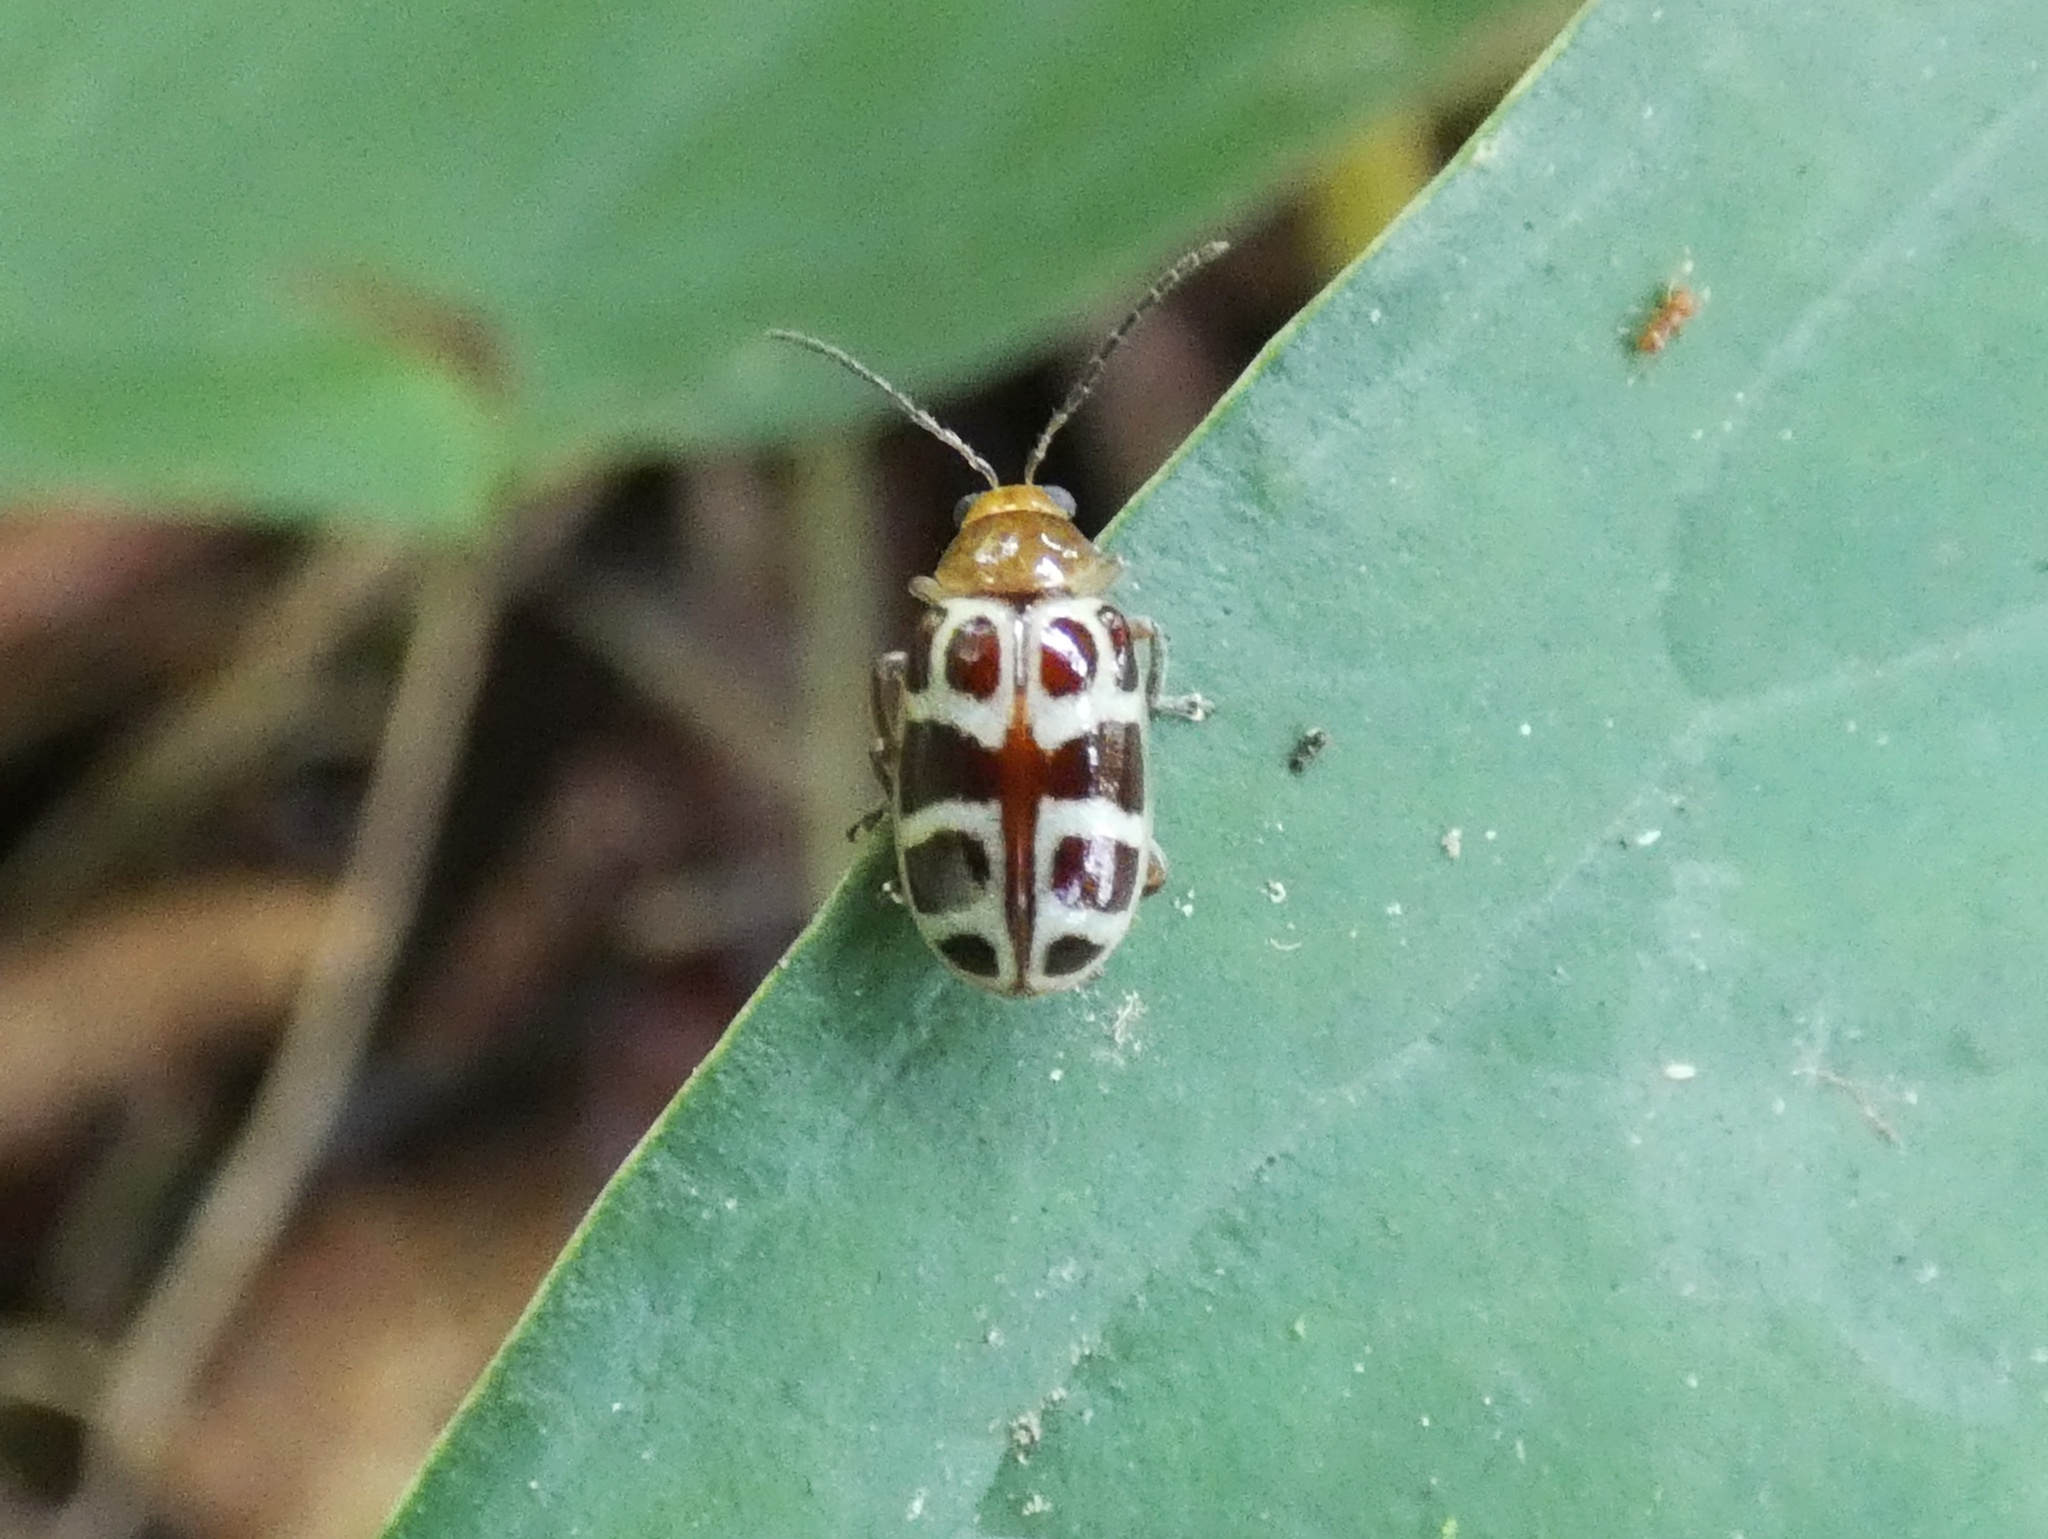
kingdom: Animalia
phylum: Arthropoda
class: Insecta
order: Coleoptera
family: Chrysomelidae
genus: Exora
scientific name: Exora olivacea
